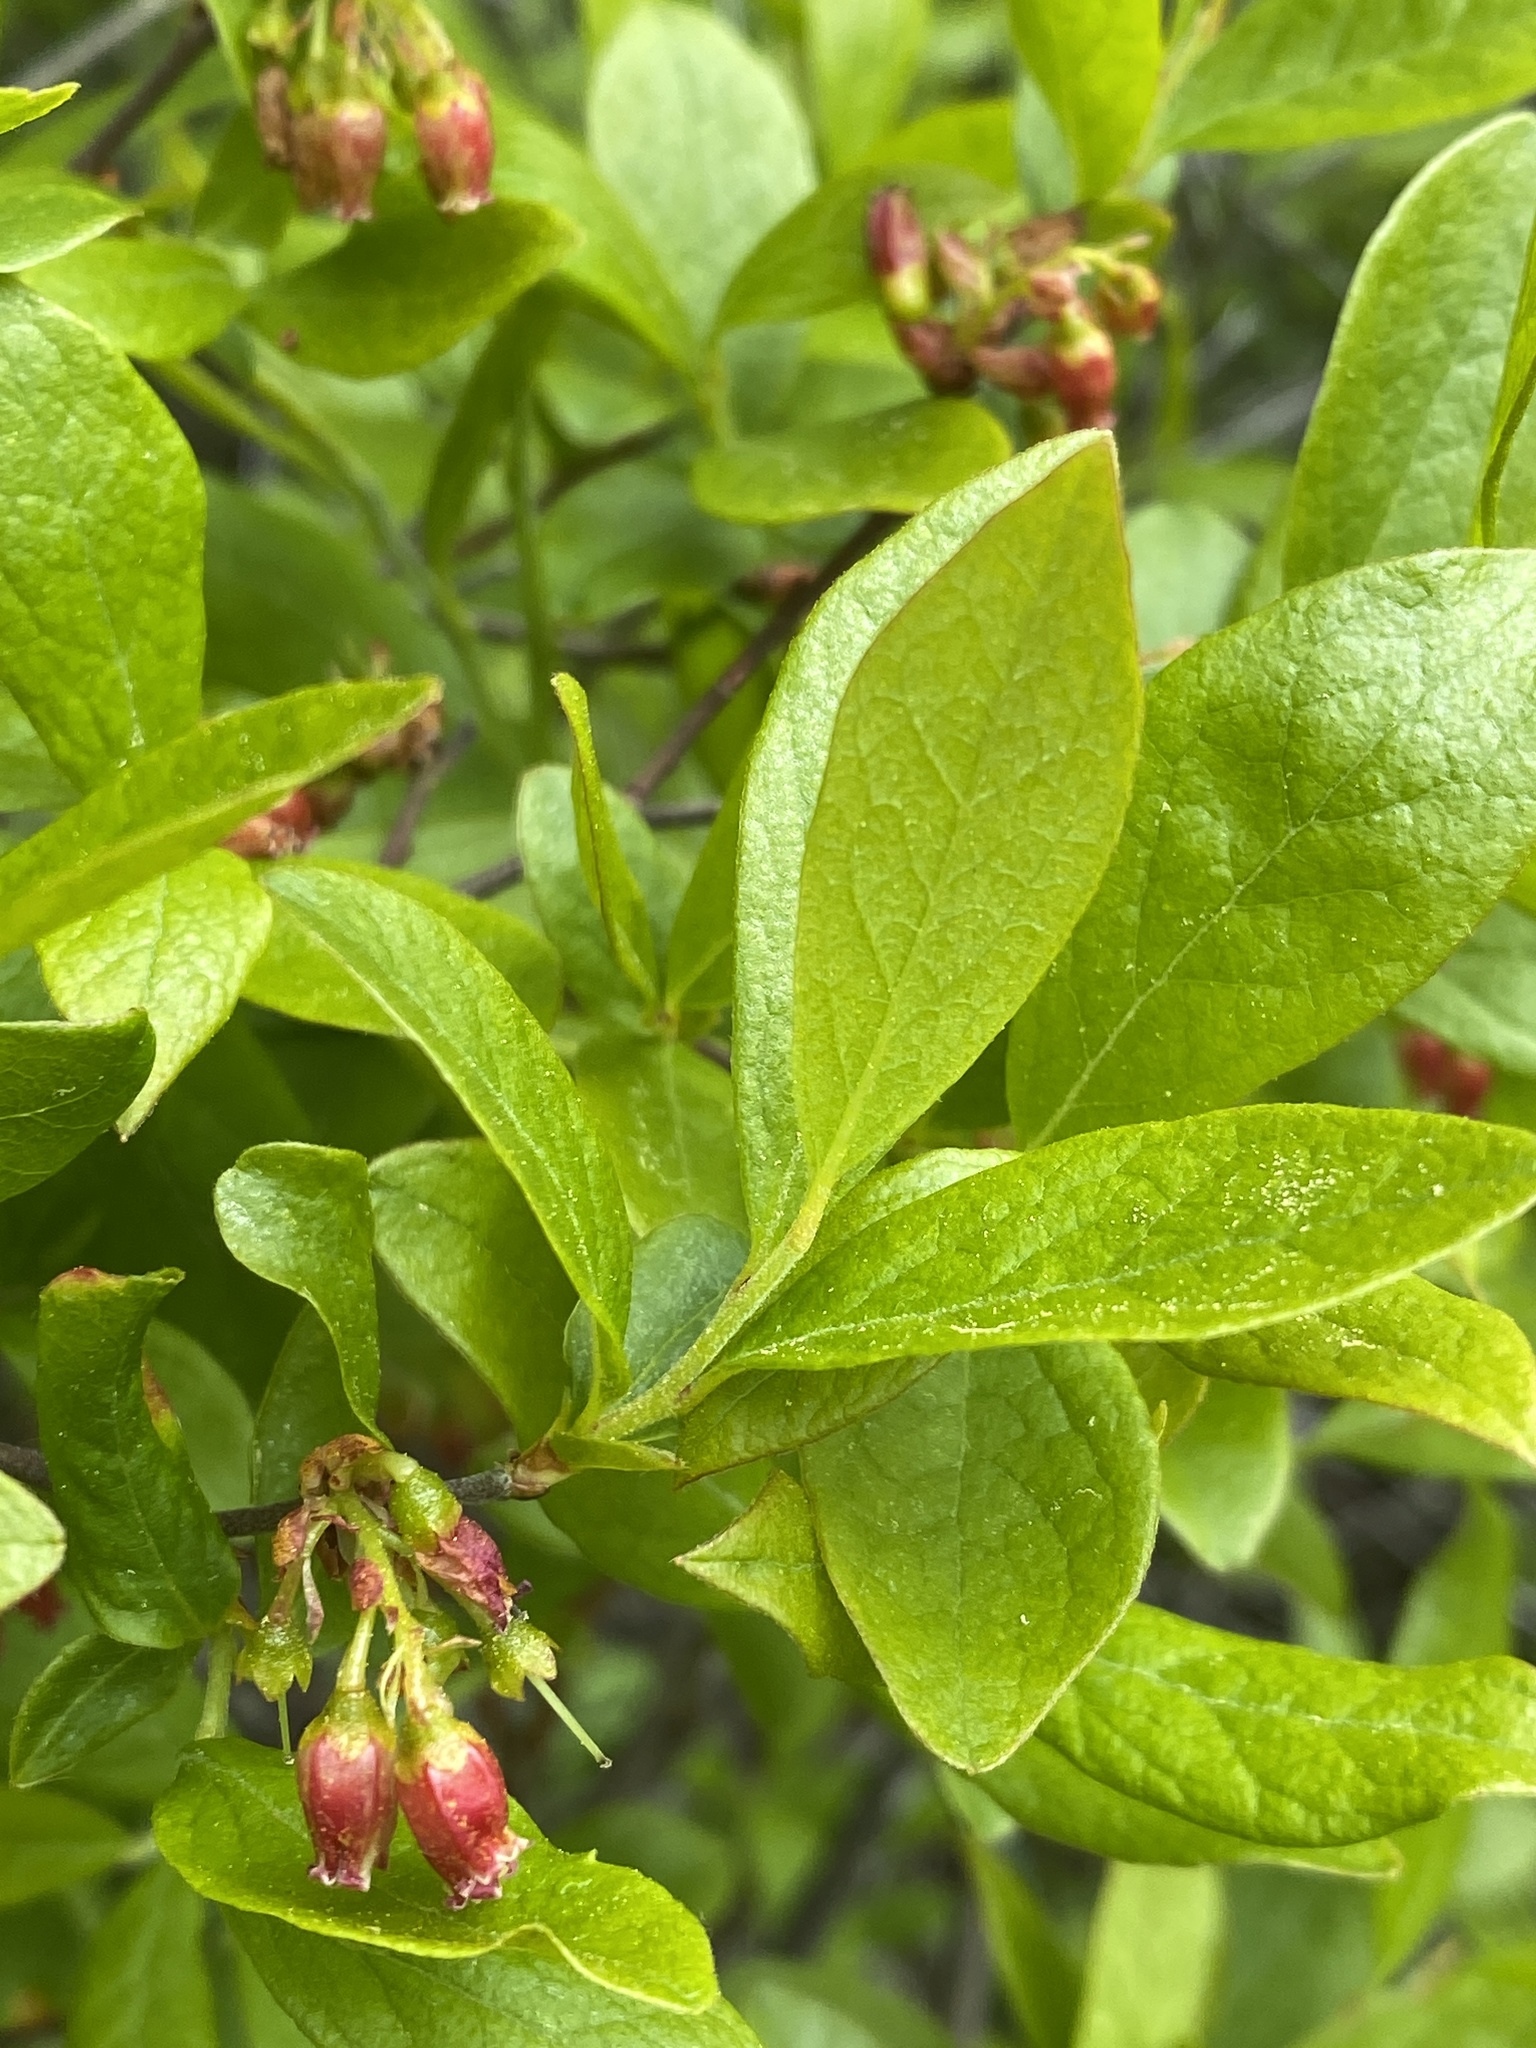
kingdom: Plantae
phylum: Tracheophyta
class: Magnoliopsida
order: Ericales
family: Ericaceae
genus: Gaylussacia
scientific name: Gaylussacia baccata
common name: Black huckleberry
